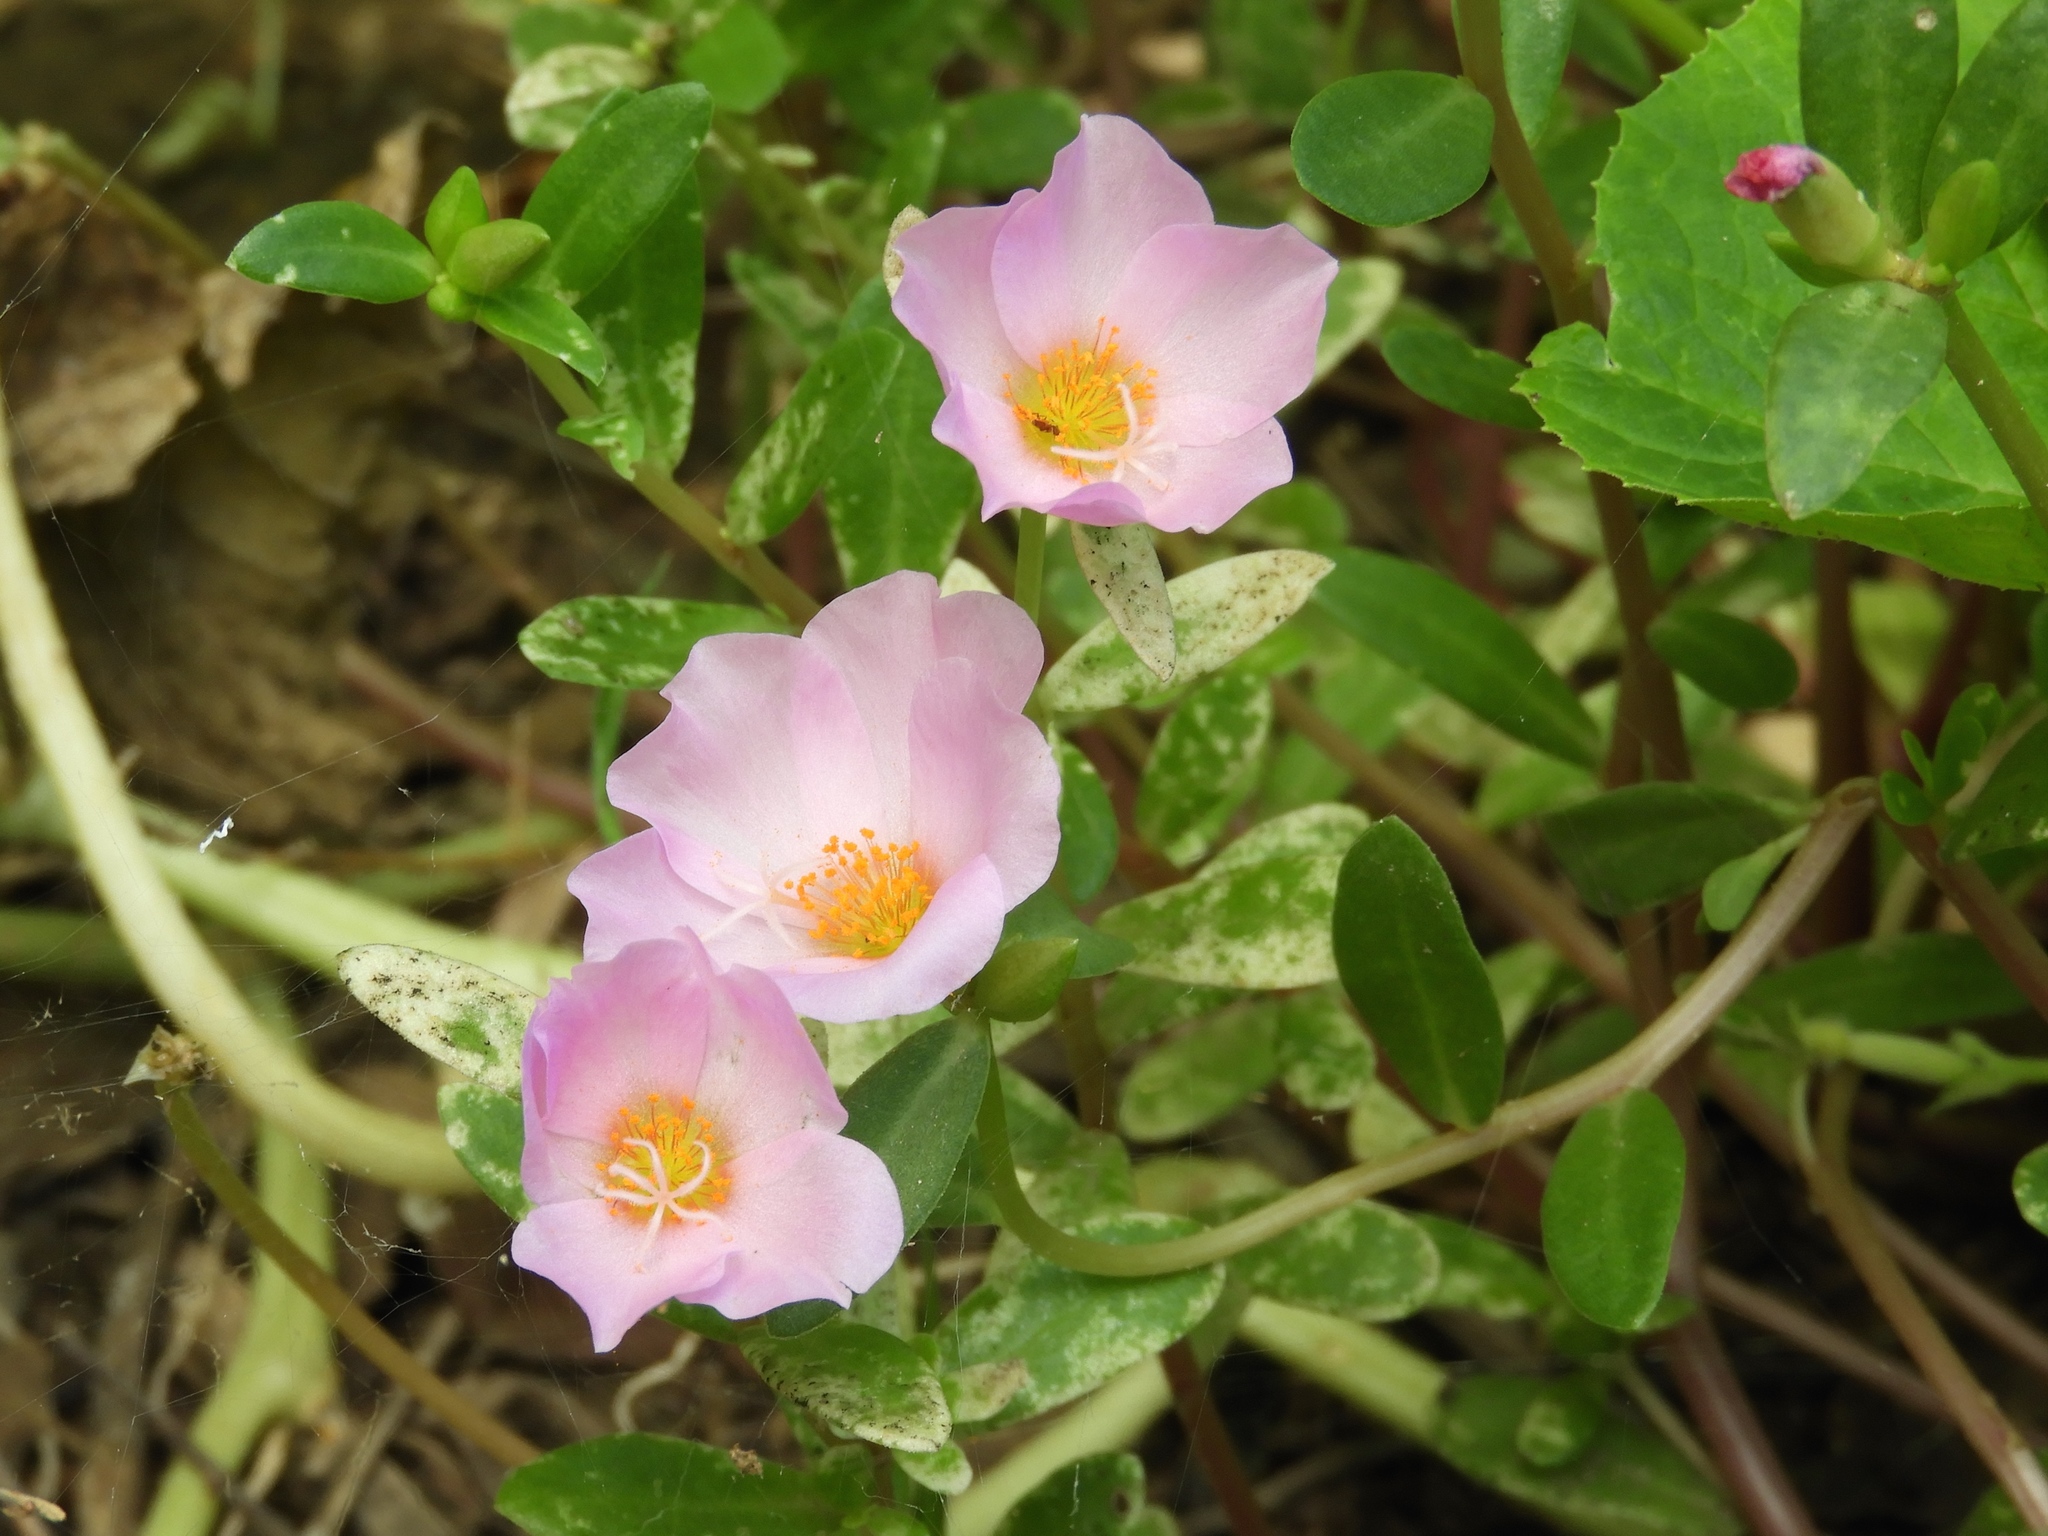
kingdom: Plantae
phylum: Tracheophyta
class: Magnoliopsida
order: Caryophyllales
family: Portulacaceae
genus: Portulaca
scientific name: Portulaca
